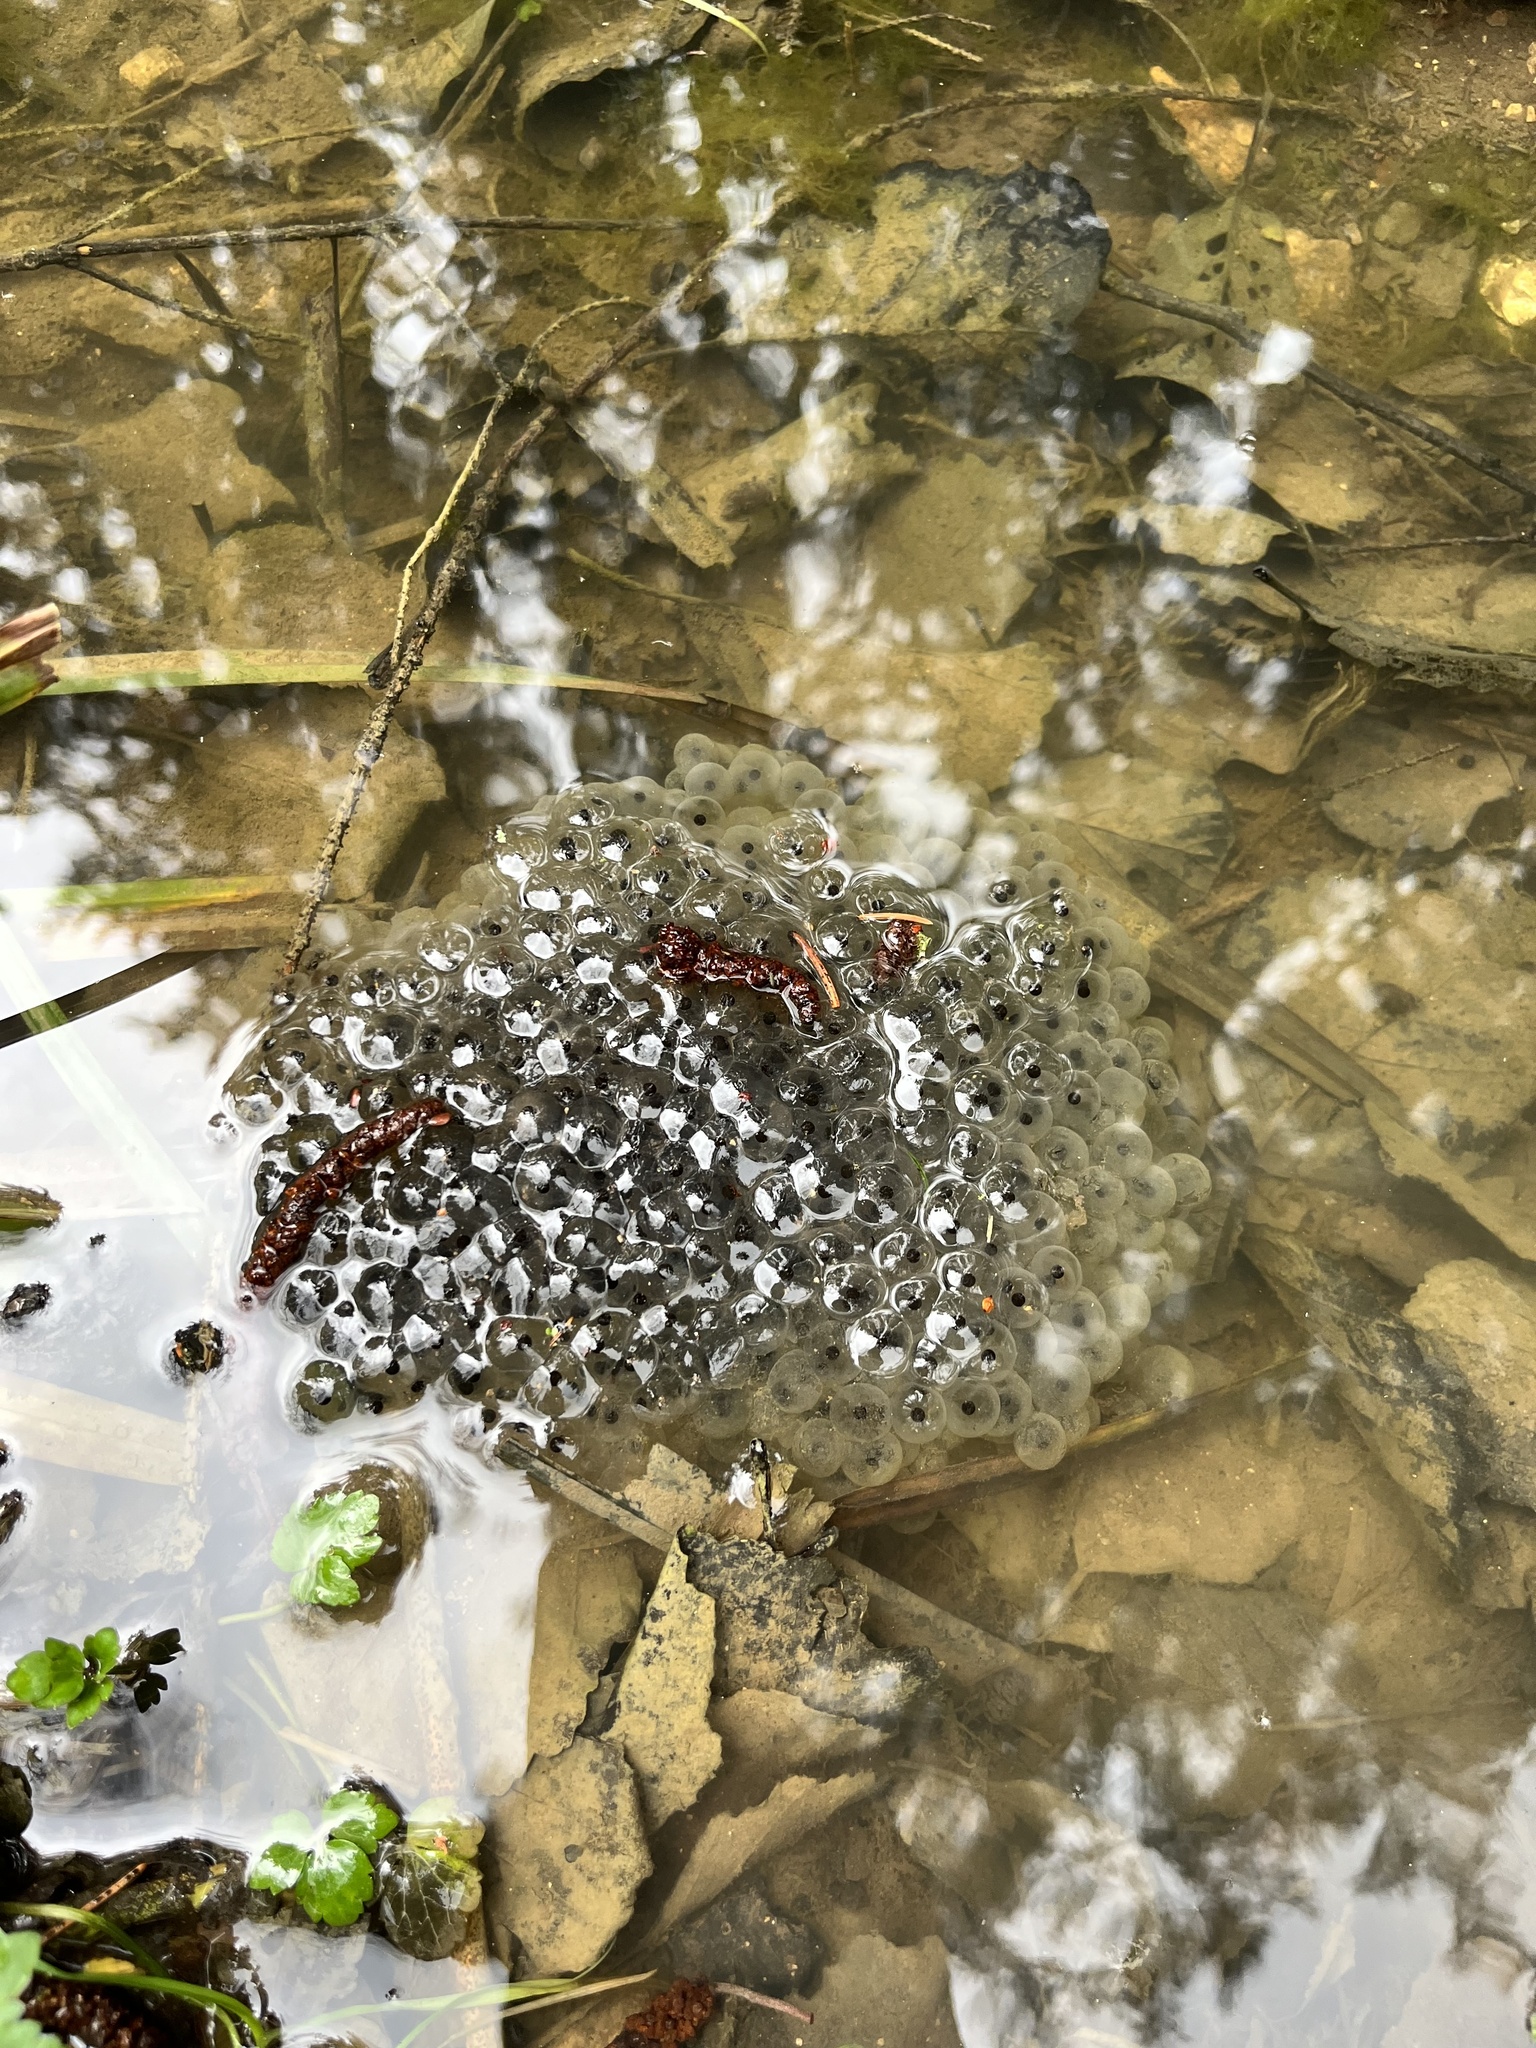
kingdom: Animalia
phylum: Chordata
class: Amphibia
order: Anura
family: Ranidae
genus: Rana
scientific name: Rana temporaria
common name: Common frog
